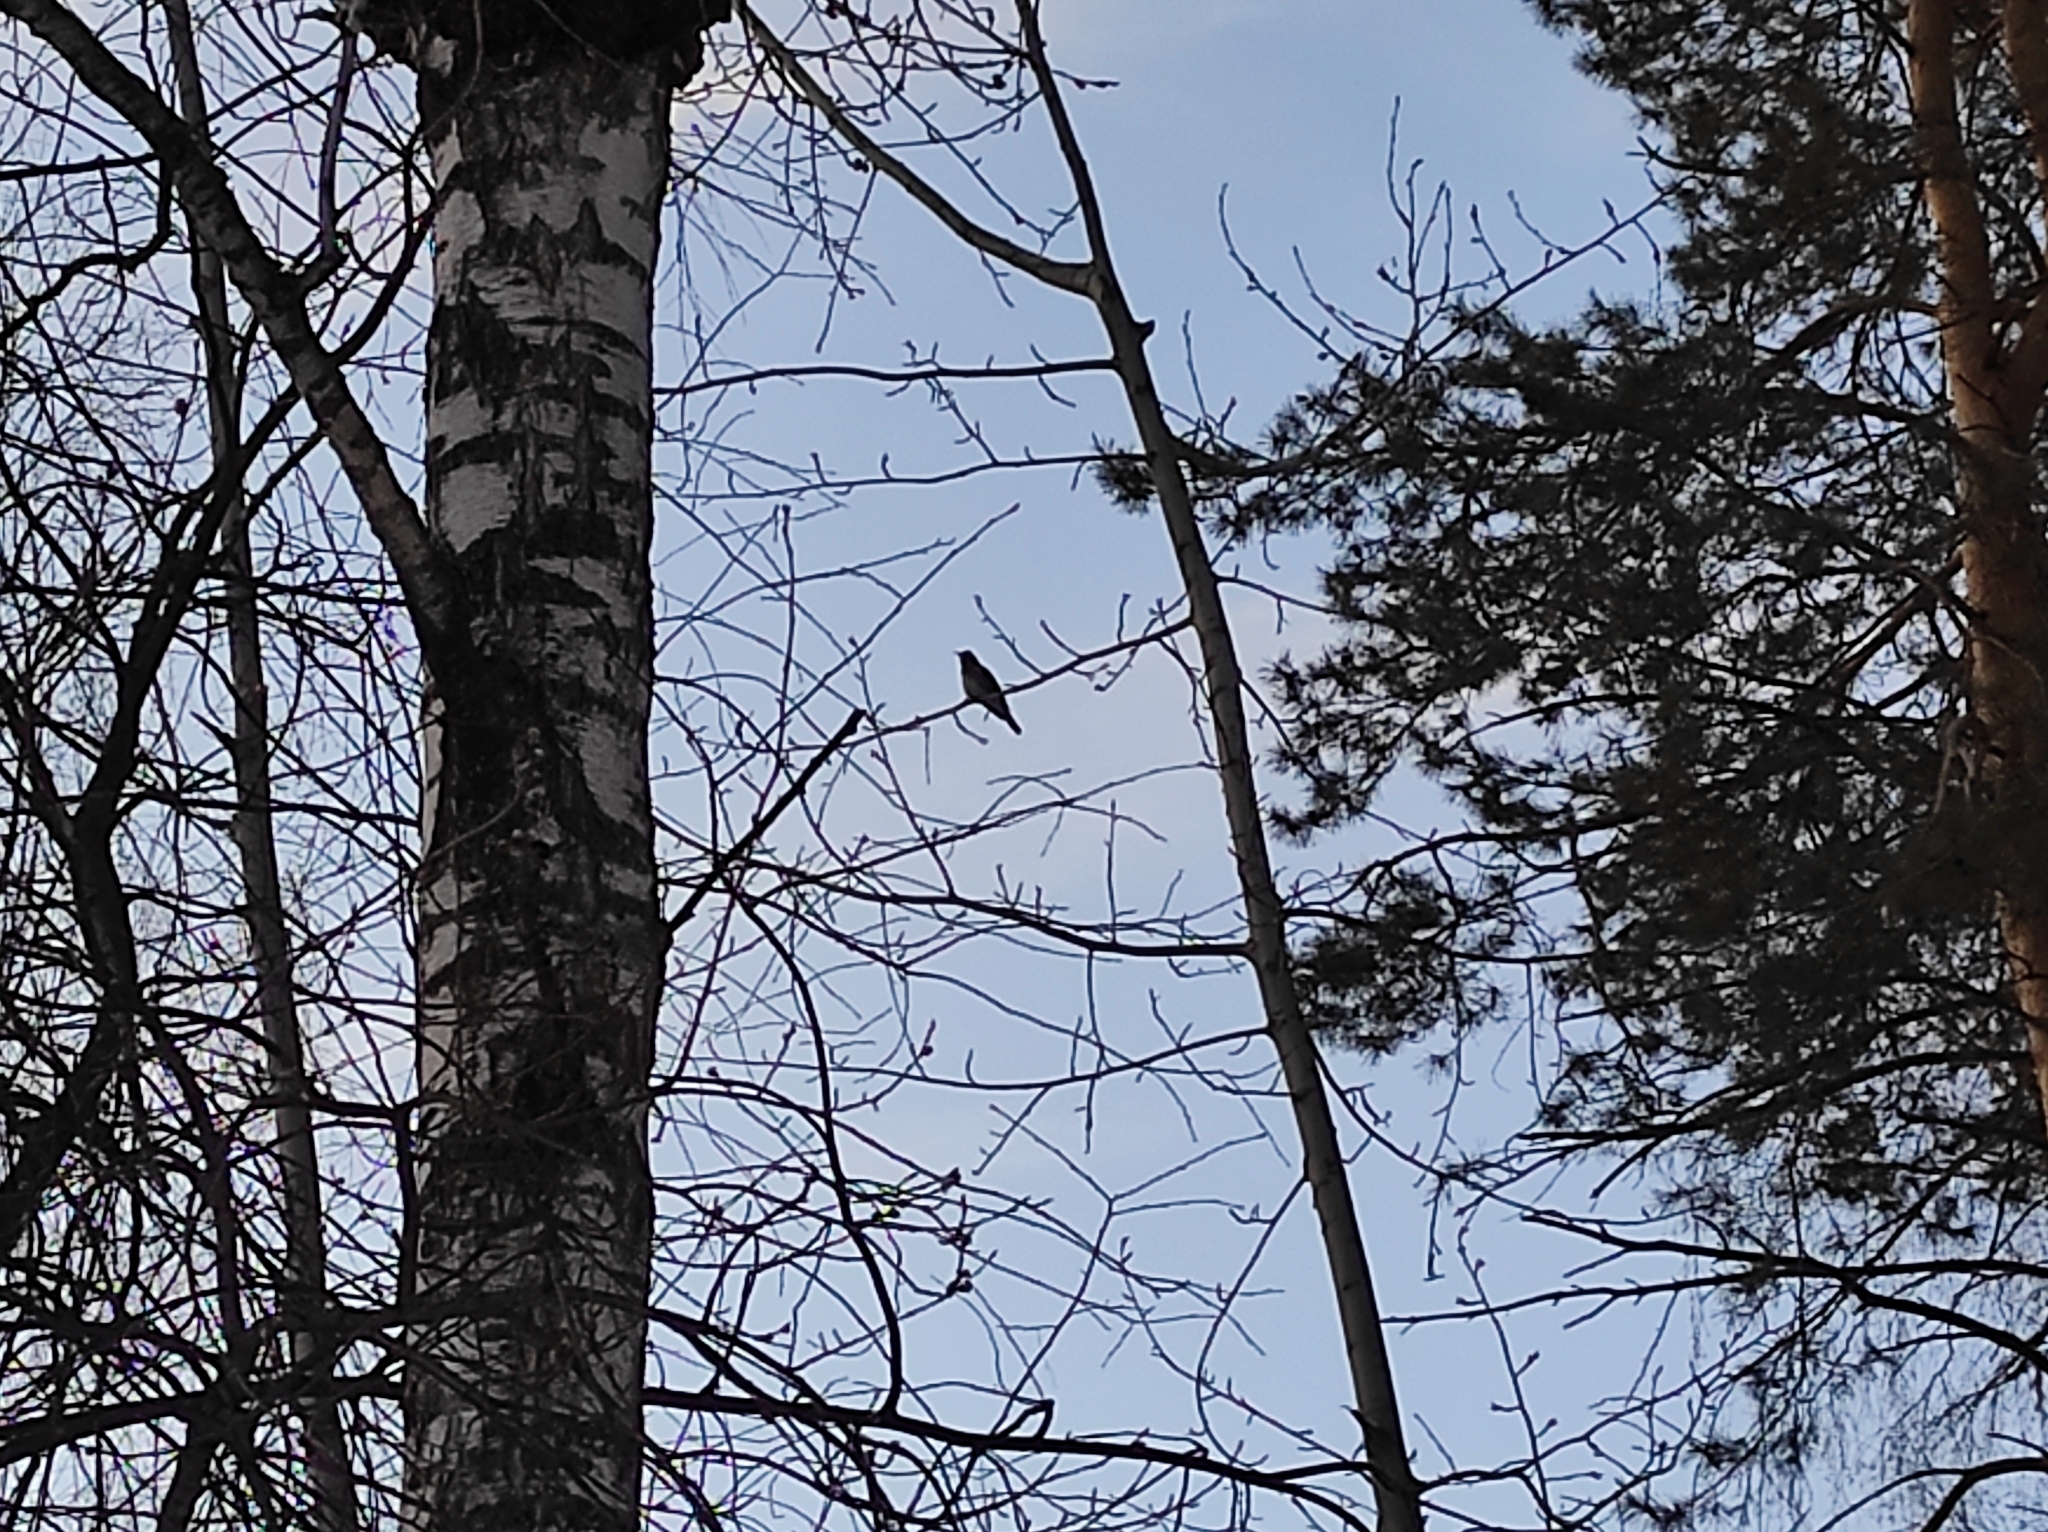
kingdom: Animalia
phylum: Chordata
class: Aves
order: Passeriformes
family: Turdidae
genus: Turdus
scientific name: Turdus pilaris
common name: Fieldfare
